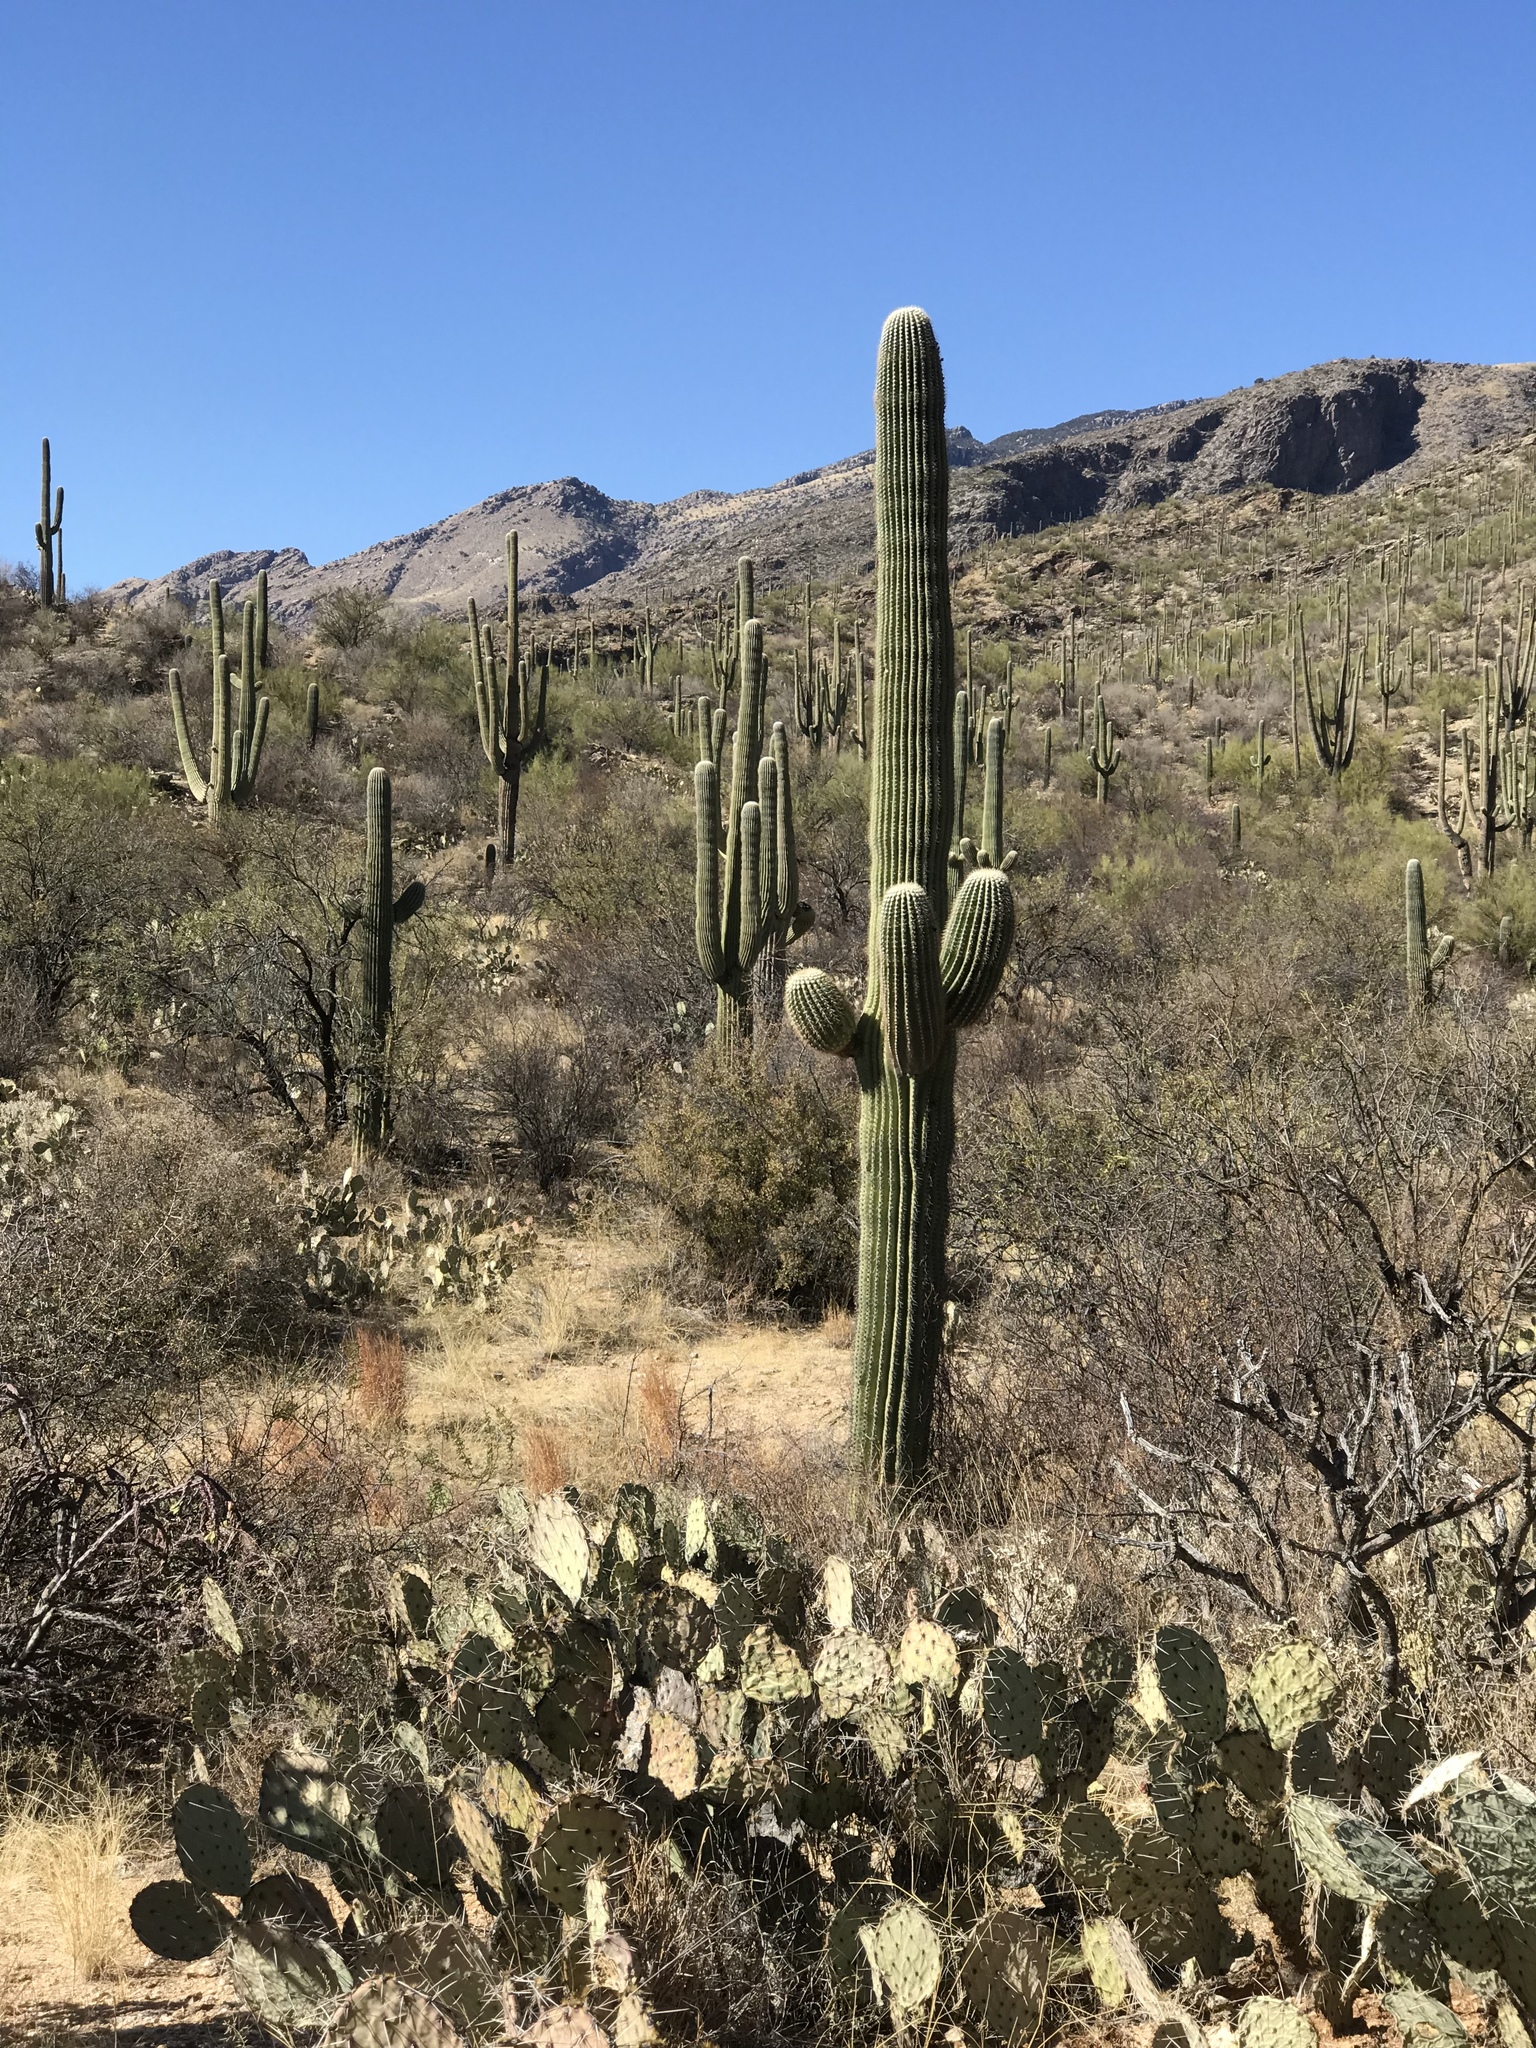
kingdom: Plantae
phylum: Tracheophyta
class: Magnoliopsida
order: Caryophyllales
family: Cactaceae
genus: Carnegiea
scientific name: Carnegiea gigantea
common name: Saguaro
